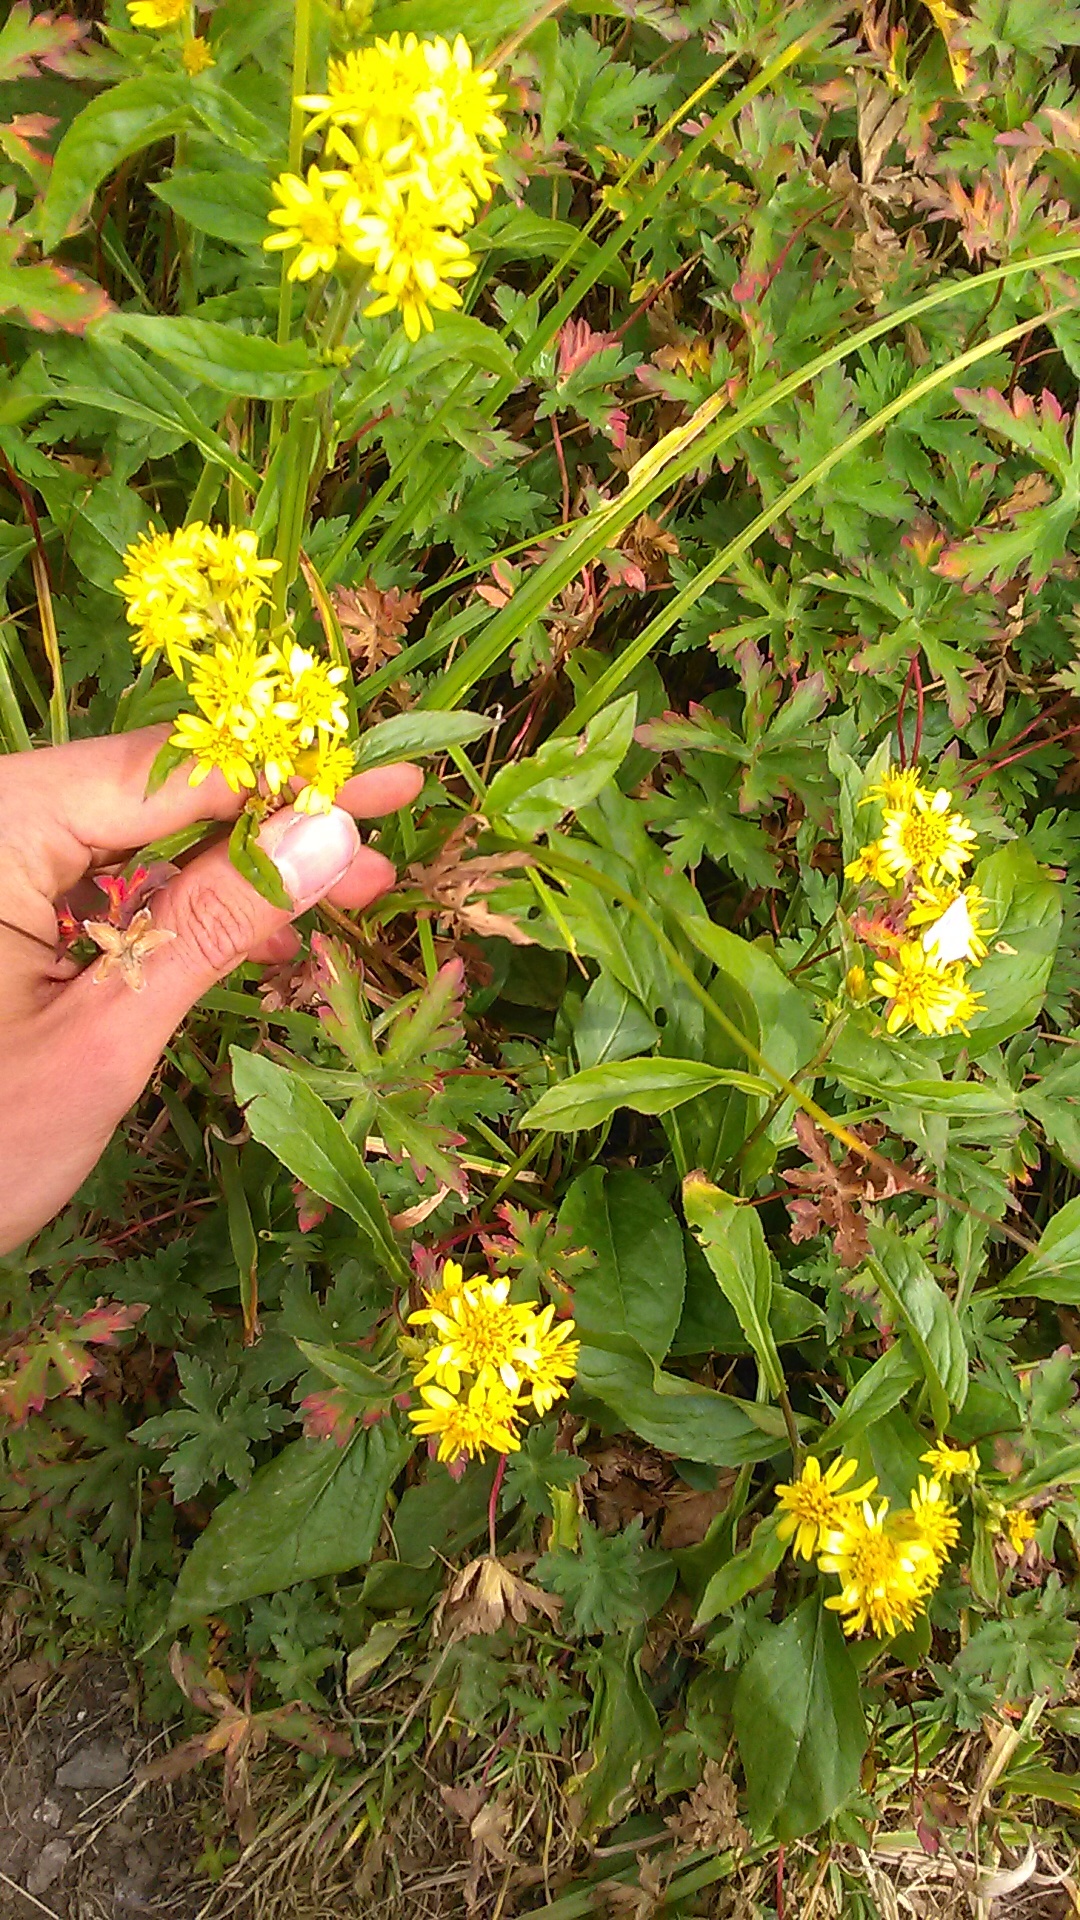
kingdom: Plantae
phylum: Tracheophyta
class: Magnoliopsida
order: Asterales
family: Asteraceae
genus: Solidago
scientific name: Solidago virgaurea
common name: Goldenrod
